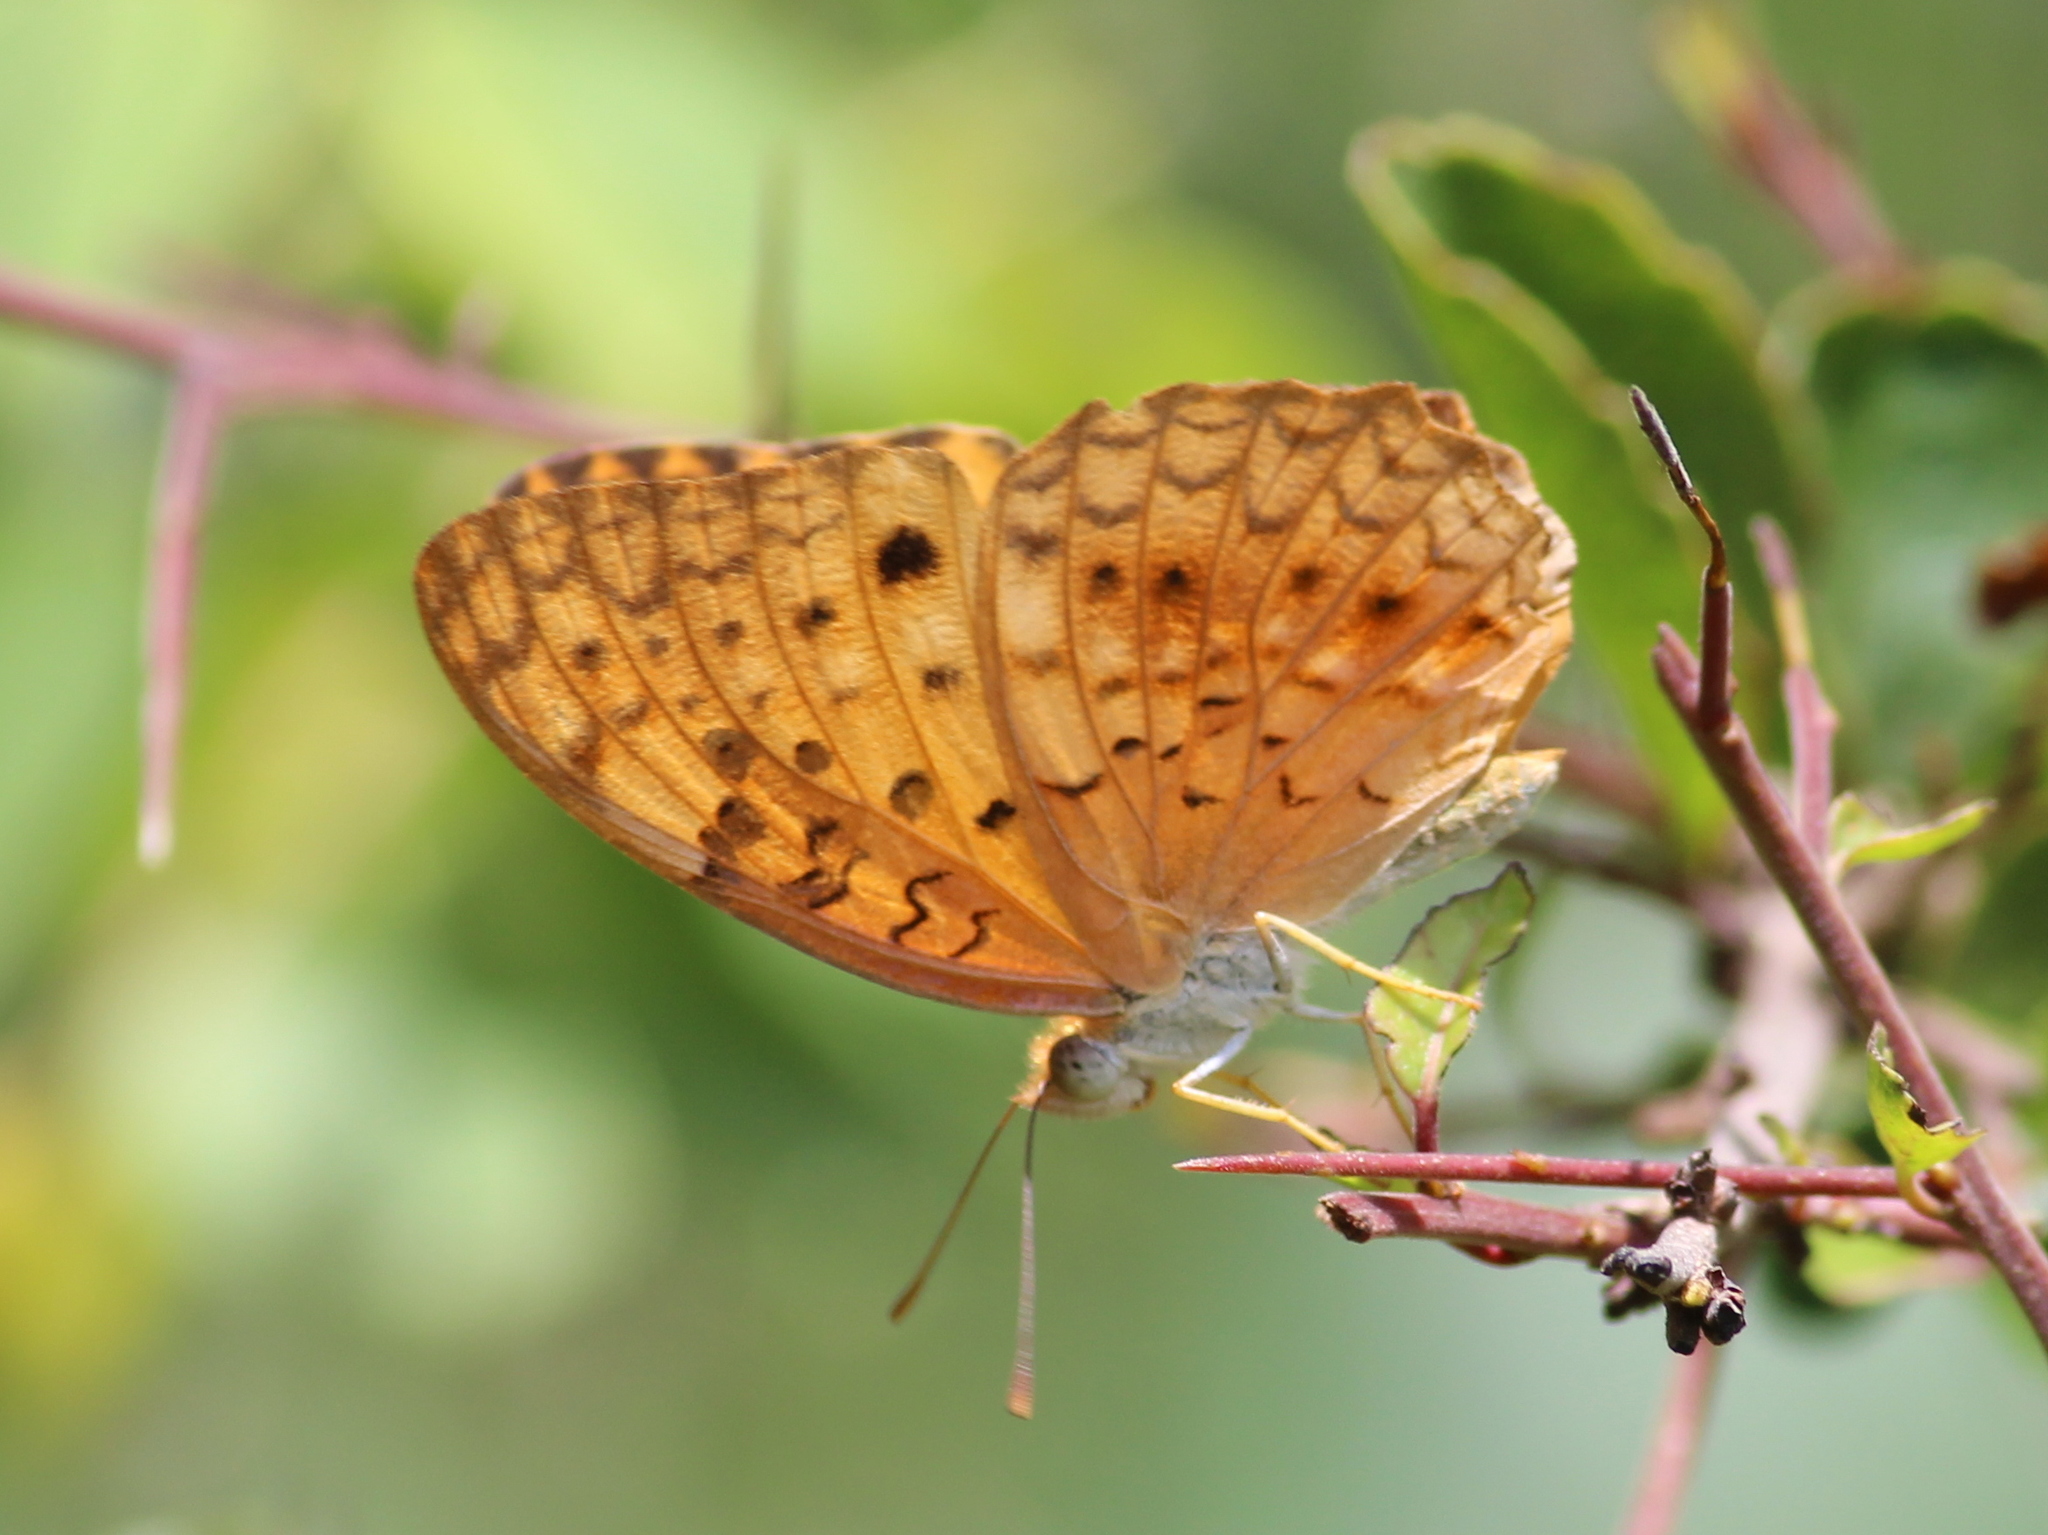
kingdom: Animalia
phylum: Arthropoda
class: Insecta
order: Lepidoptera
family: Nymphalidae
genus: Phalanta
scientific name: Phalanta phalantha
